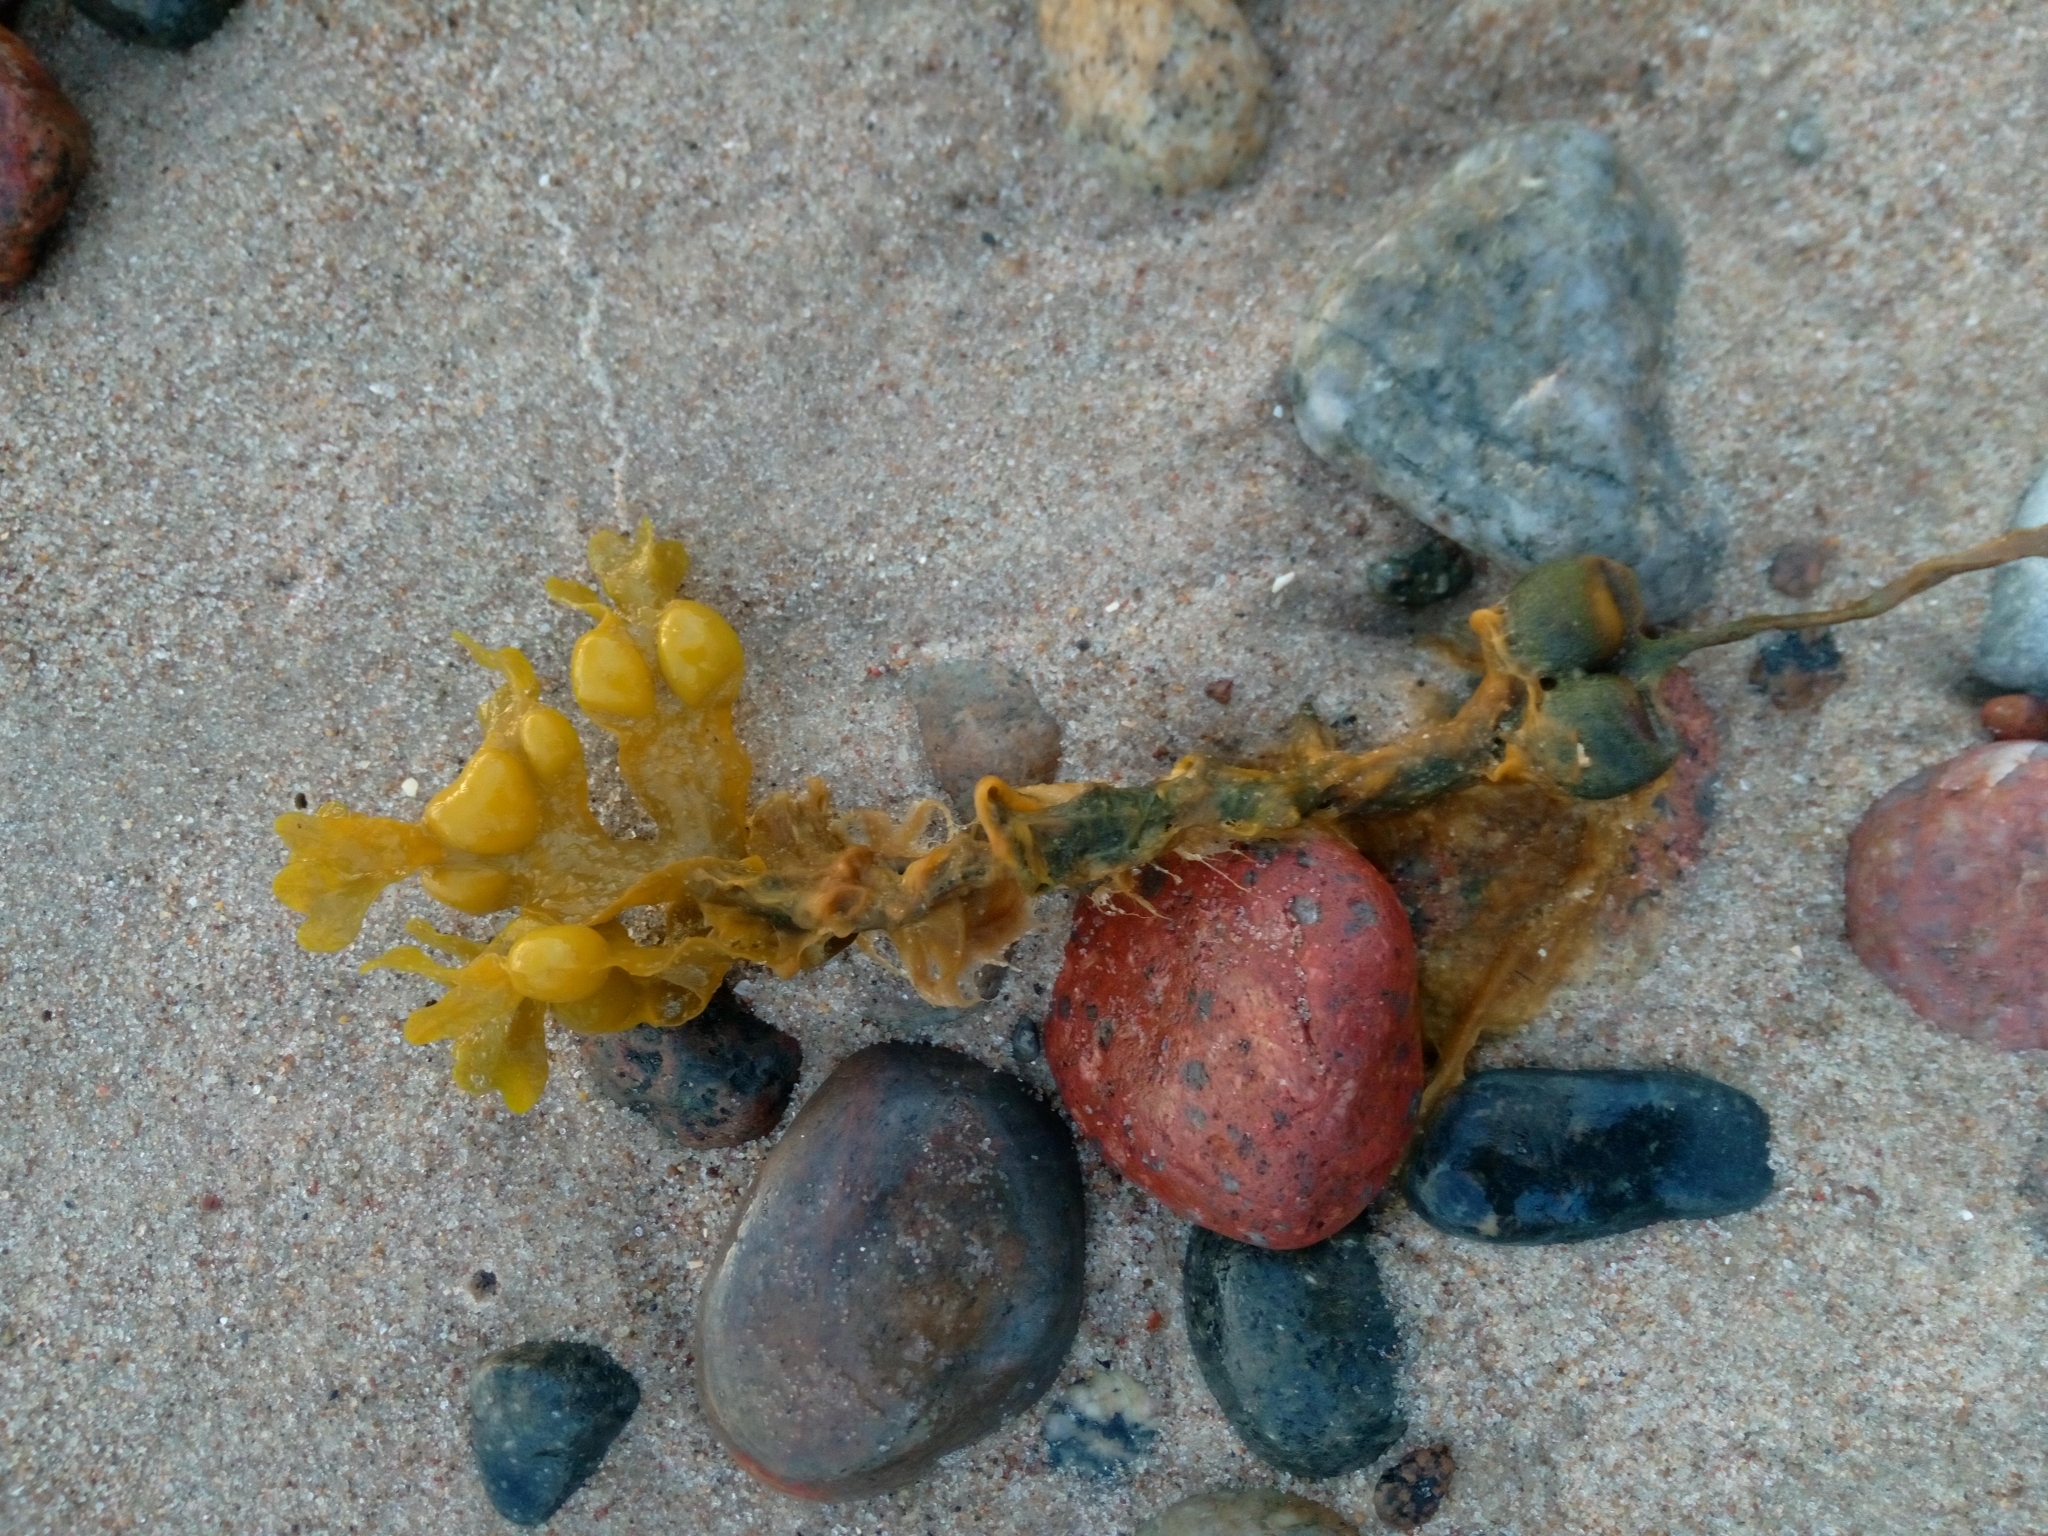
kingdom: Chromista
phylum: Ochrophyta
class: Phaeophyceae
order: Fucales
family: Fucaceae
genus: Fucus
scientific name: Fucus vesiculosus
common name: Bladder wrack
